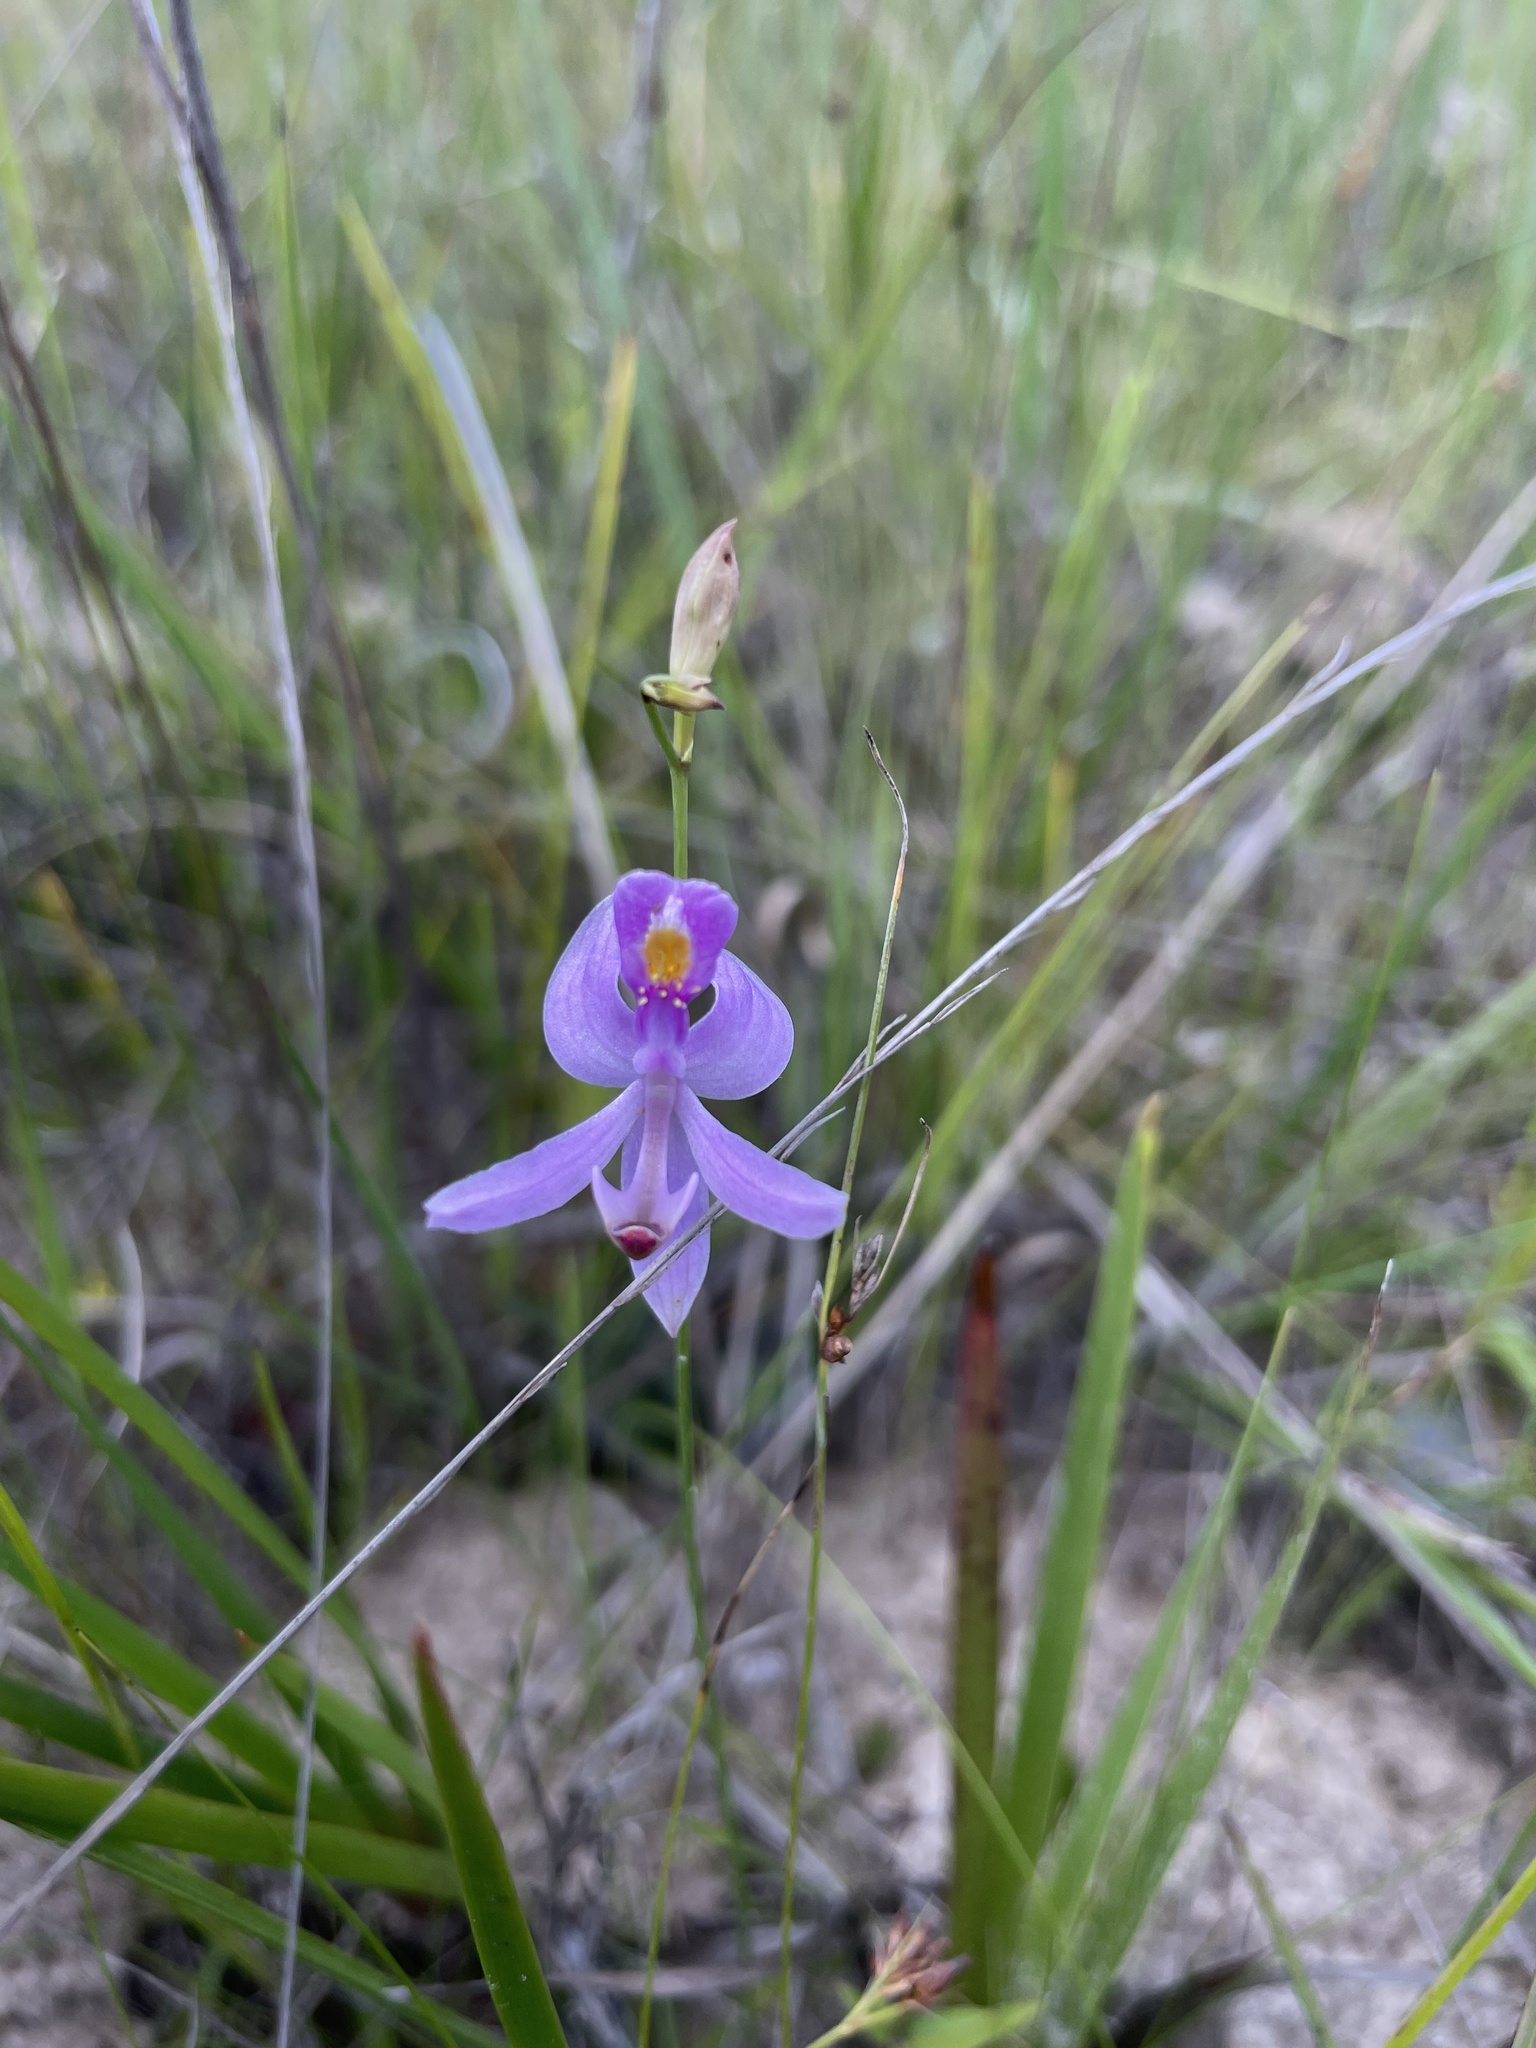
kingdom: Plantae
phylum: Tracheophyta
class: Liliopsida
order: Asparagales
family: Orchidaceae
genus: Calopogon
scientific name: Calopogon pallidus
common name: Pale grasspink
